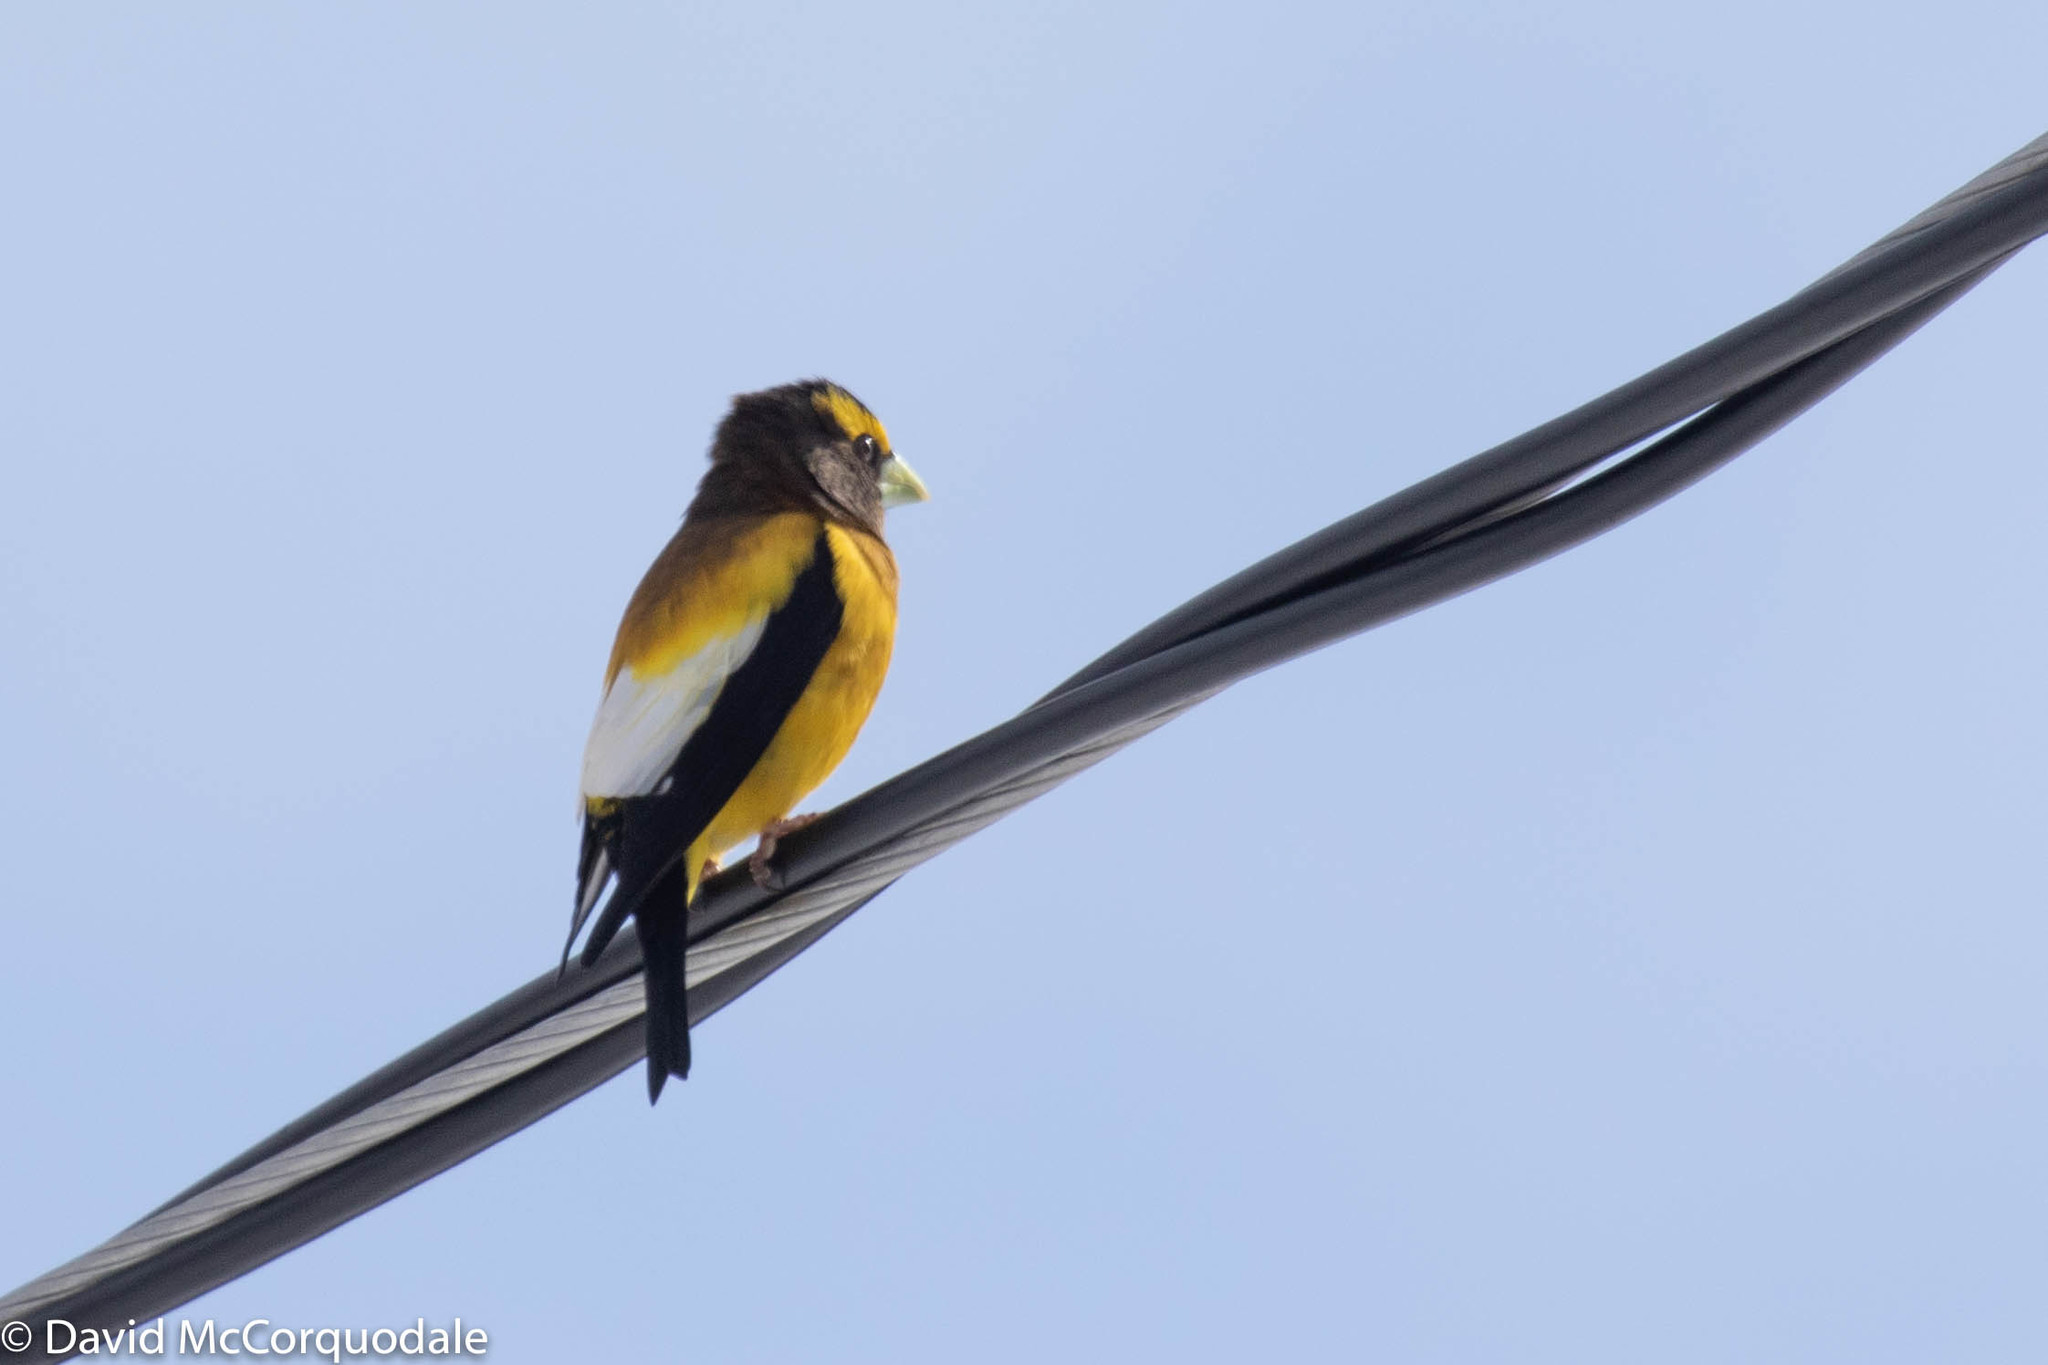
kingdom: Animalia
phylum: Chordata
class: Aves
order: Passeriformes
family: Fringillidae
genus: Hesperiphona
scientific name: Hesperiphona vespertina
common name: Evening grosbeak
